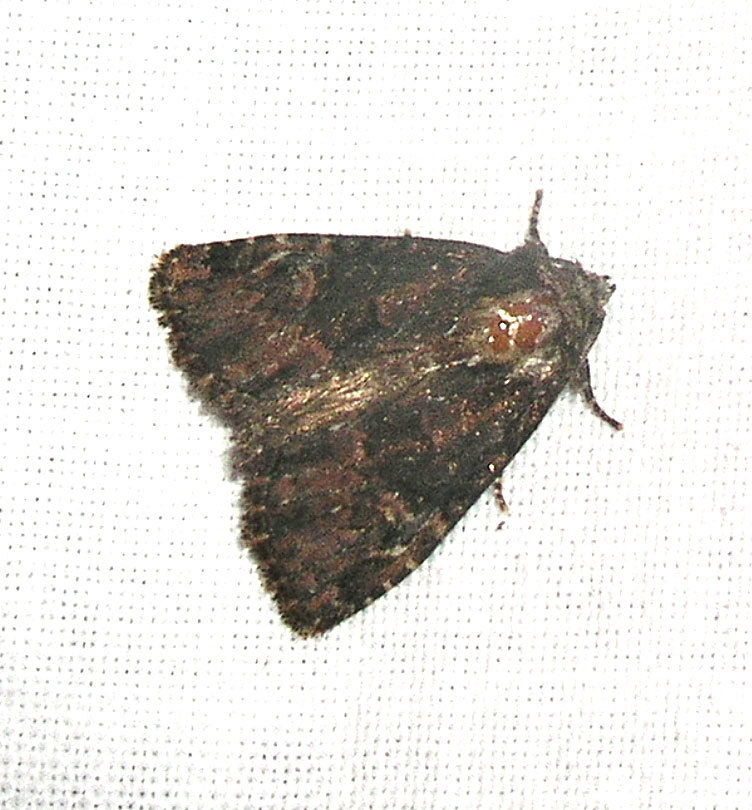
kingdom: Animalia
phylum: Arthropoda
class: Insecta
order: Lepidoptera
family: Noctuidae
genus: Phosphila
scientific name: Phosphila turbulenta
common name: Turbulent phosphila moth
